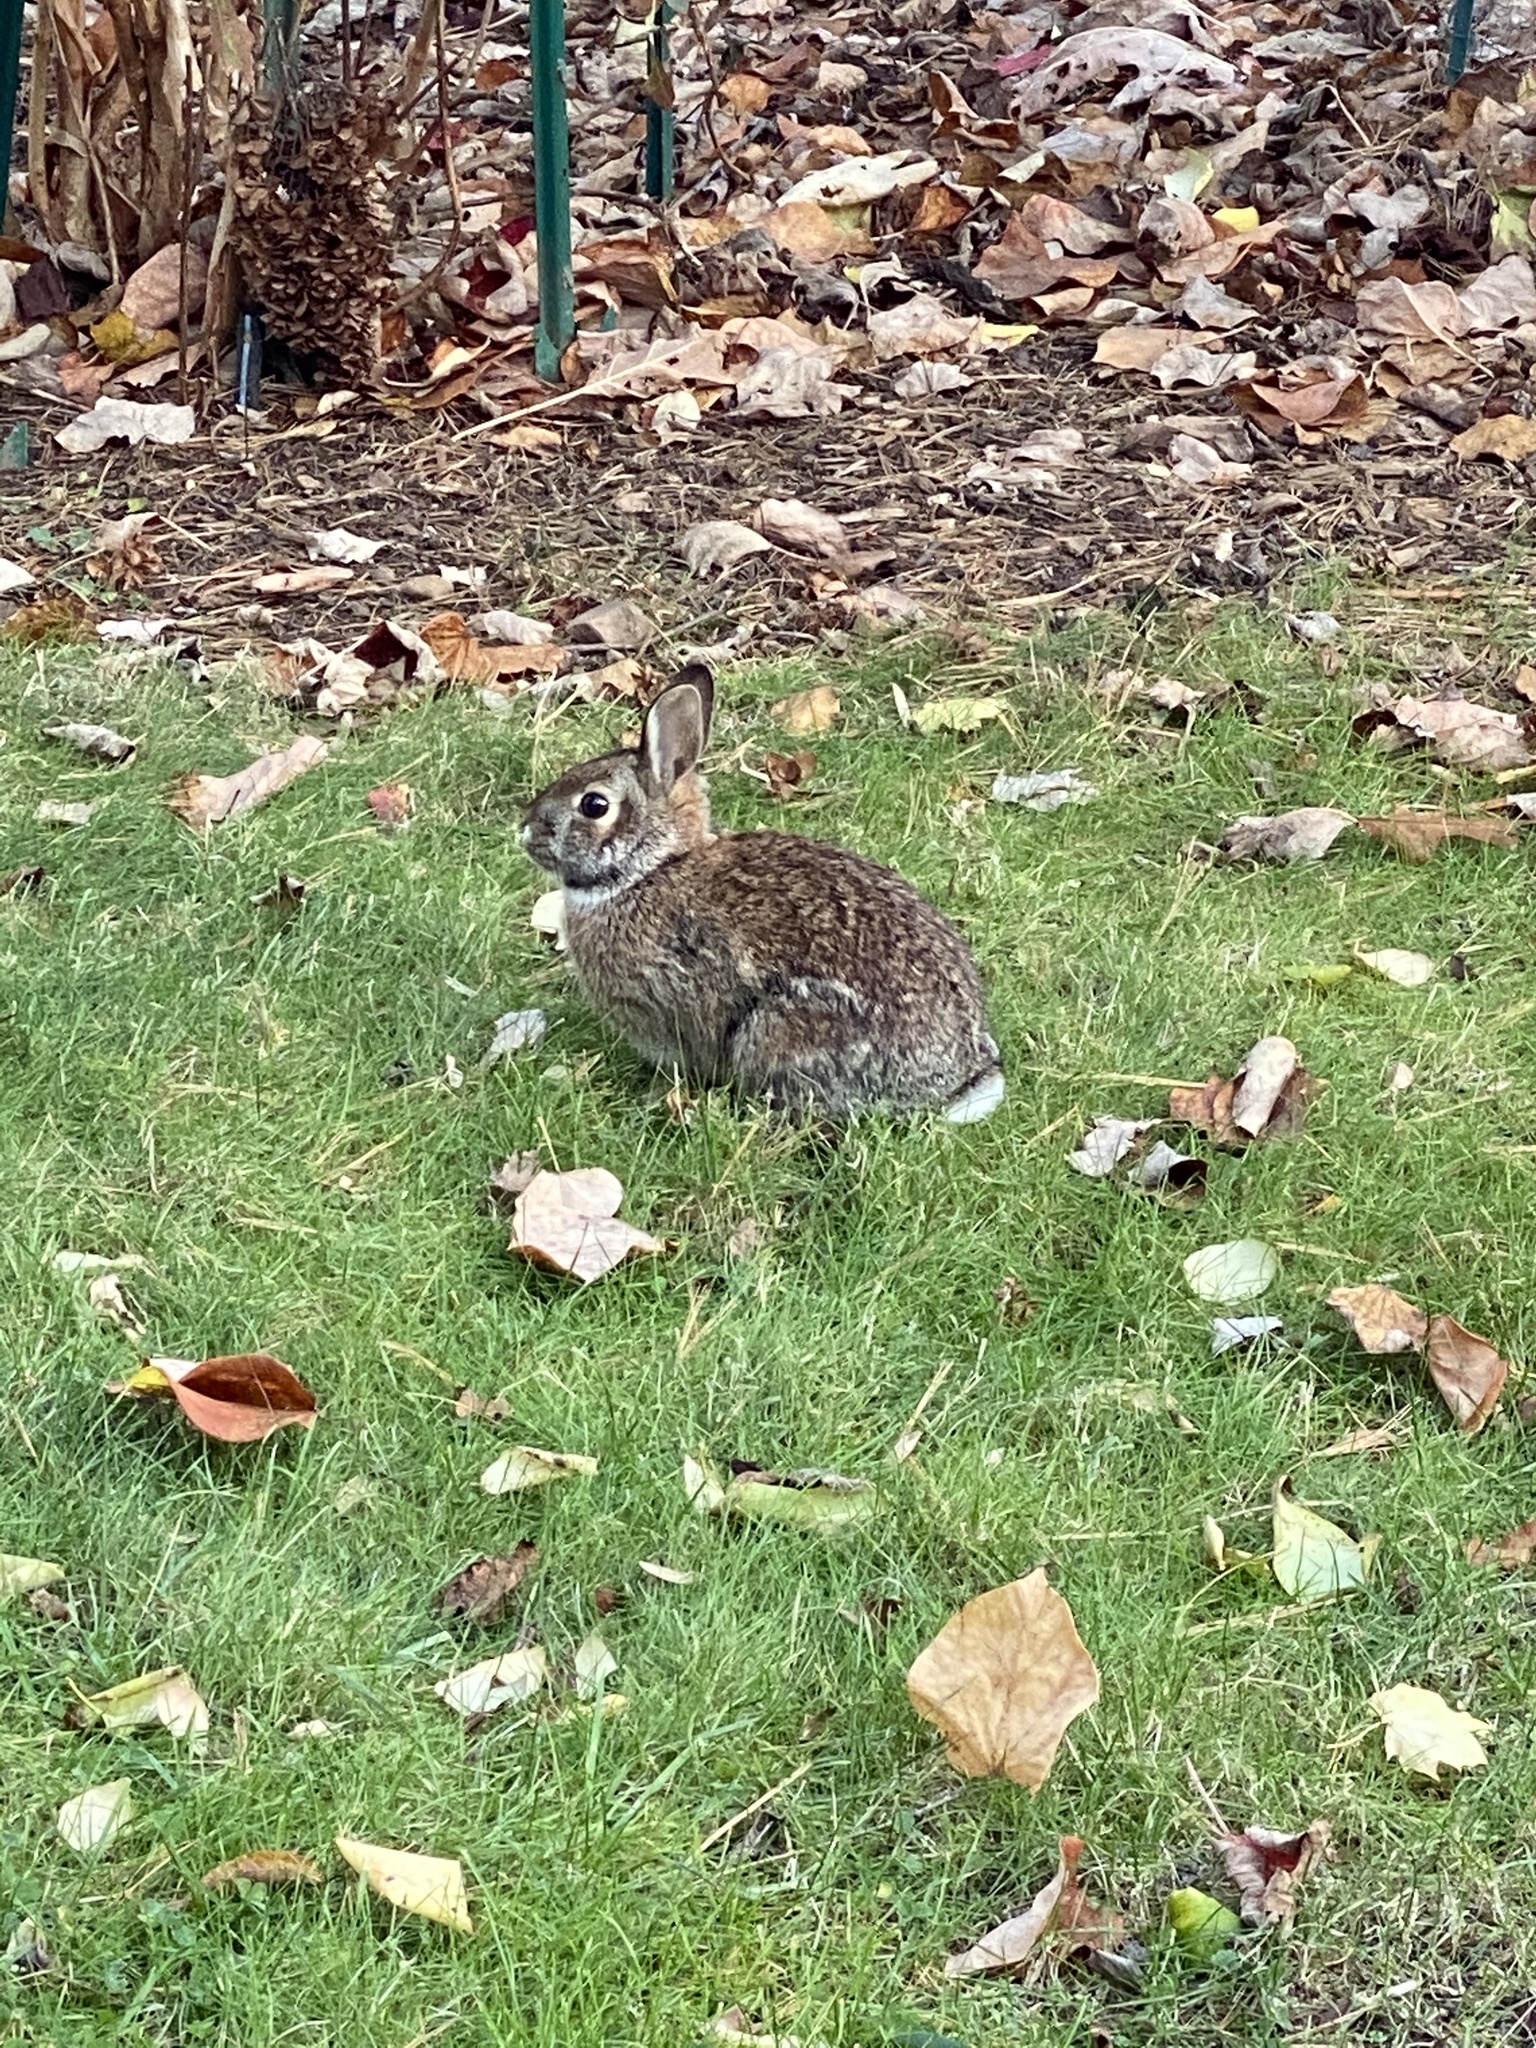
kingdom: Animalia
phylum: Chordata
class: Mammalia
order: Lagomorpha
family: Leporidae
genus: Sylvilagus
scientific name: Sylvilagus floridanus
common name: Eastern cottontail
